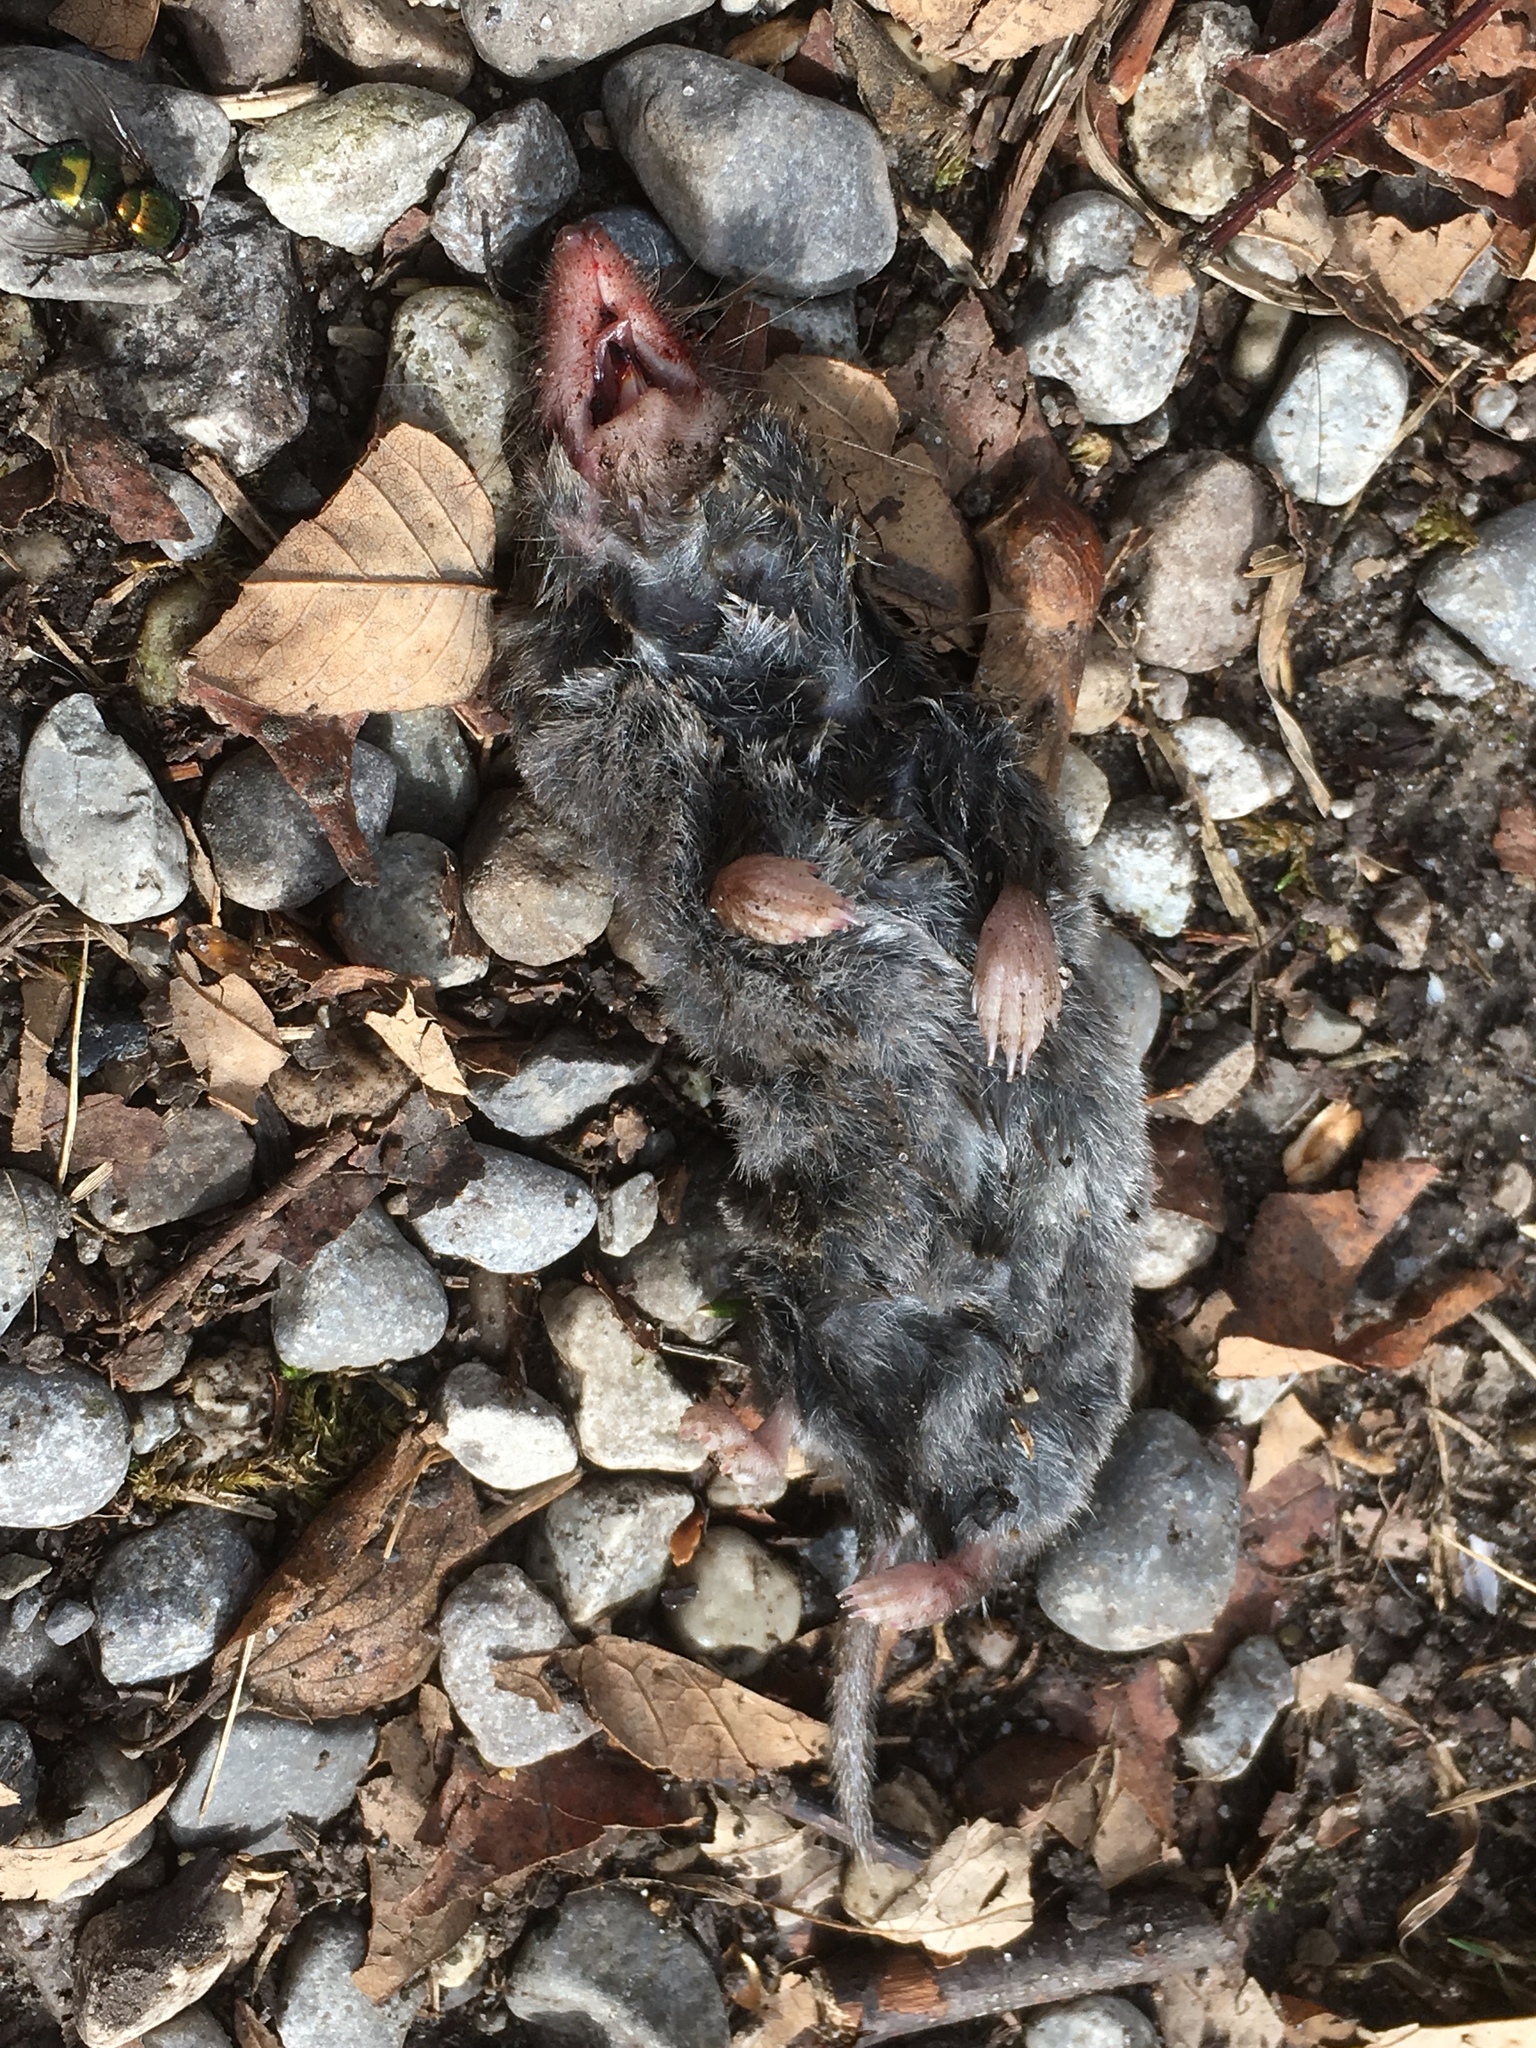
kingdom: Animalia
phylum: Chordata
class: Mammalia
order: Soricomorpha
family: Soricidae
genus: Blarina
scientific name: Blarina brevicauda
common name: Northern short-tailed shrew
